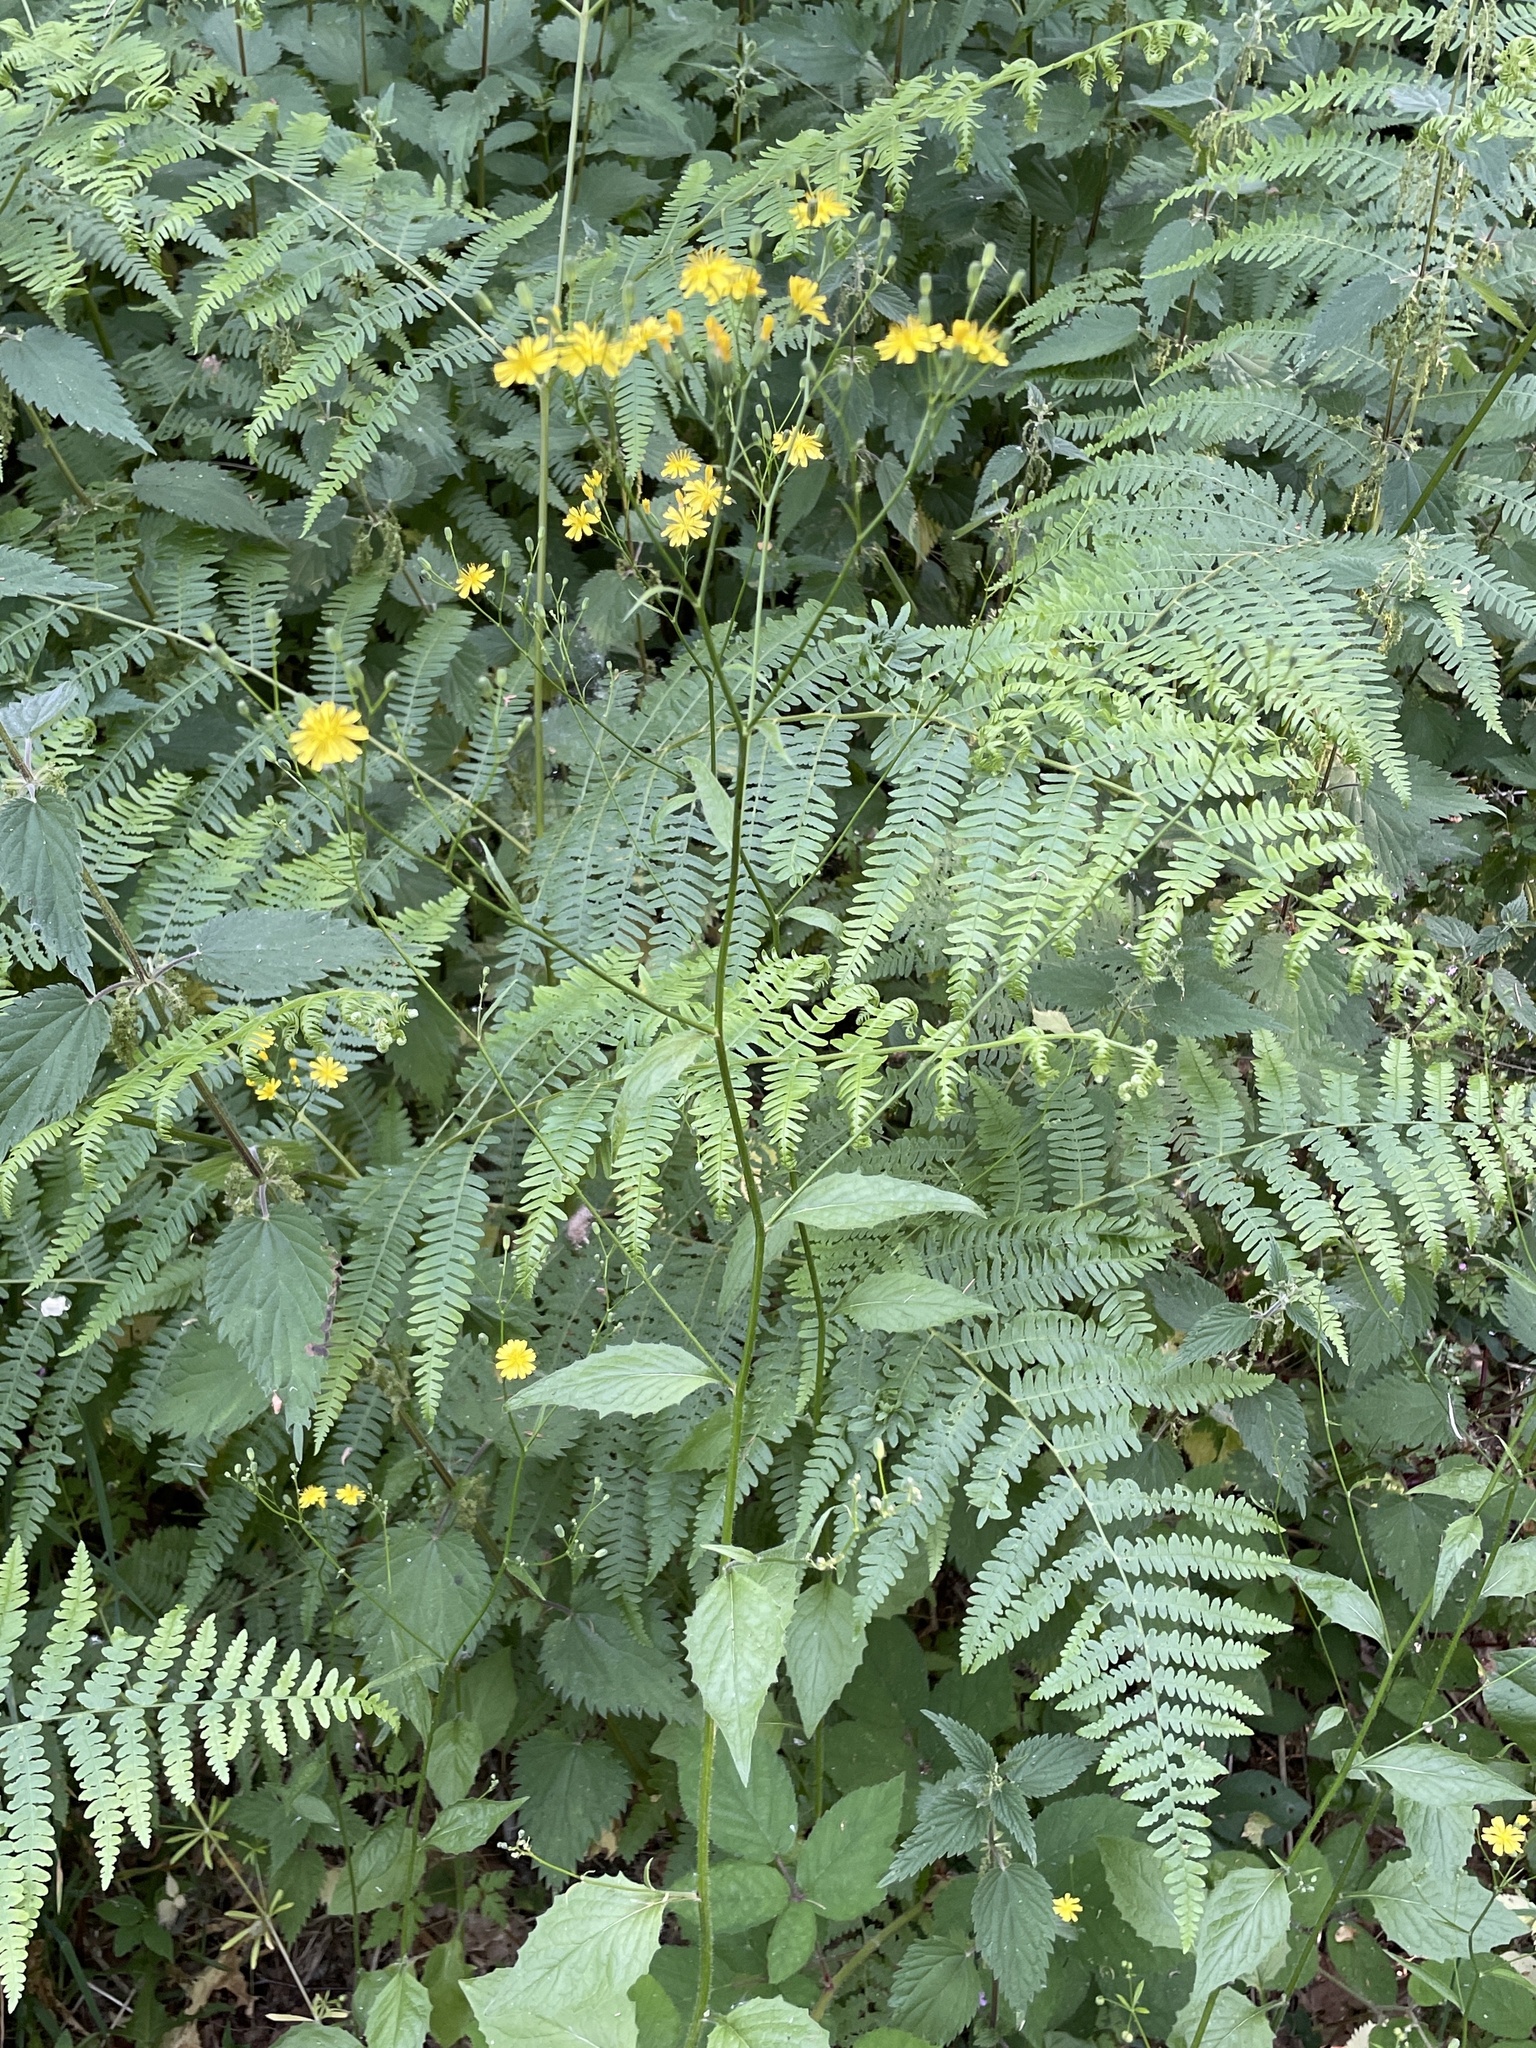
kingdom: Plantae
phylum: Tracheophyta
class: Magnoliopsida
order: Asterales
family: Asteraceae
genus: Lapsana
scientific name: Lapsana communis
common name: Nipplewort
